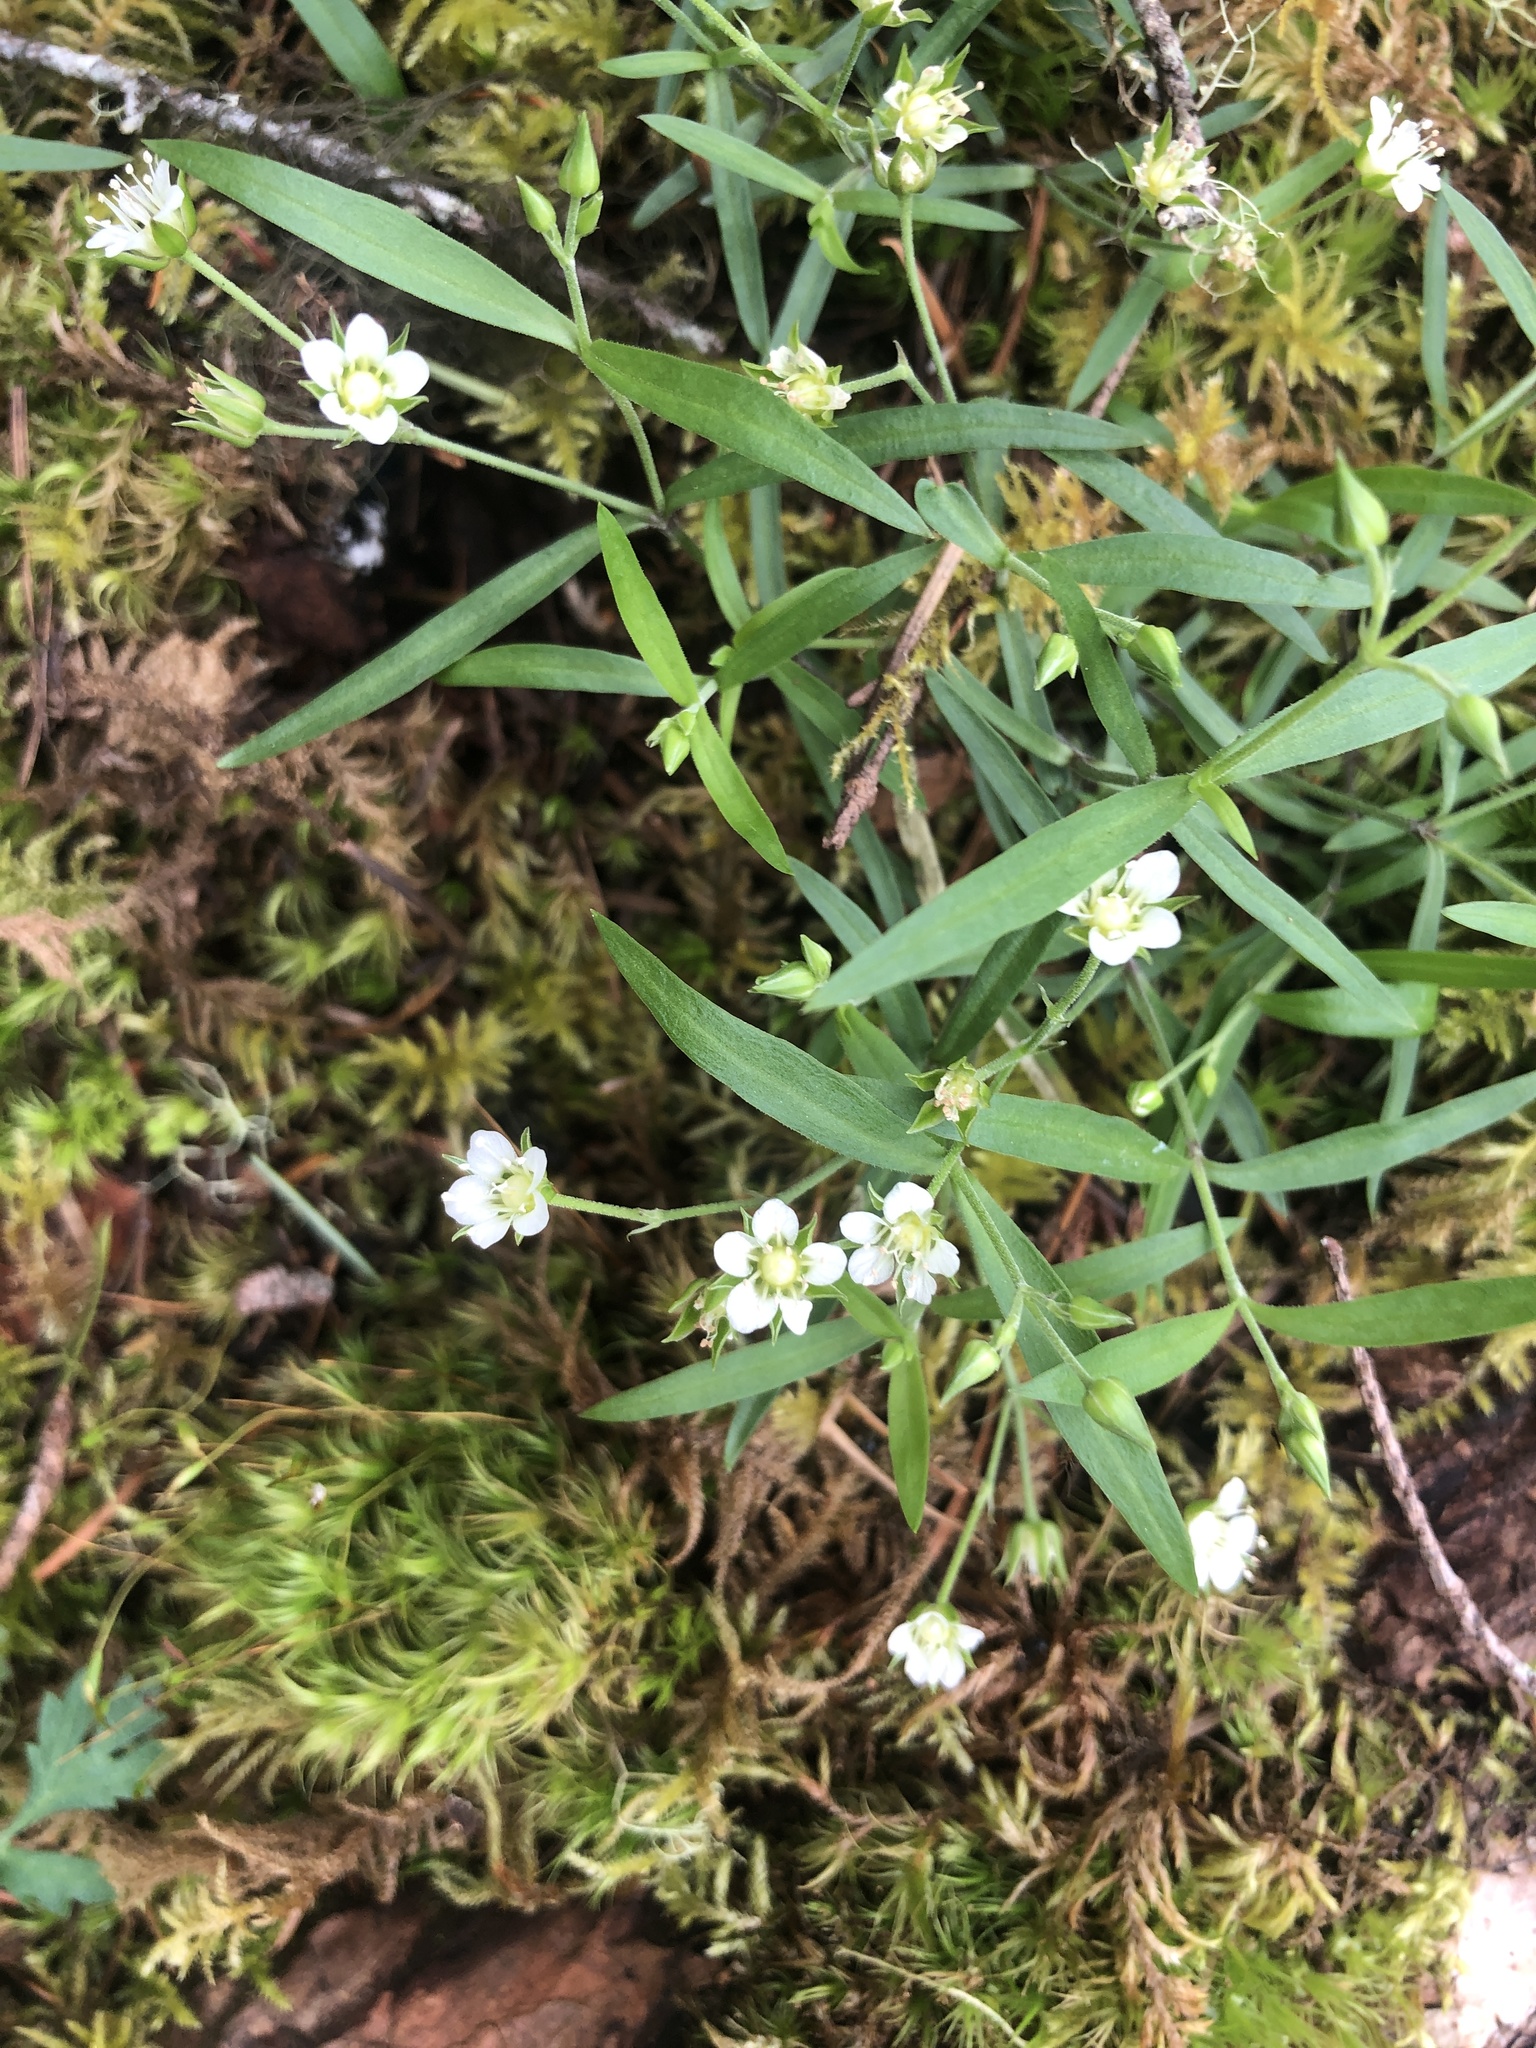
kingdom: Plantae
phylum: Tracheophyta
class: Magnoliopsida
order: Caryophyllales
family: Caryophyllaceae
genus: Moehringia
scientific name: Moehringia macrophylla
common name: Big-leaf sandwort
